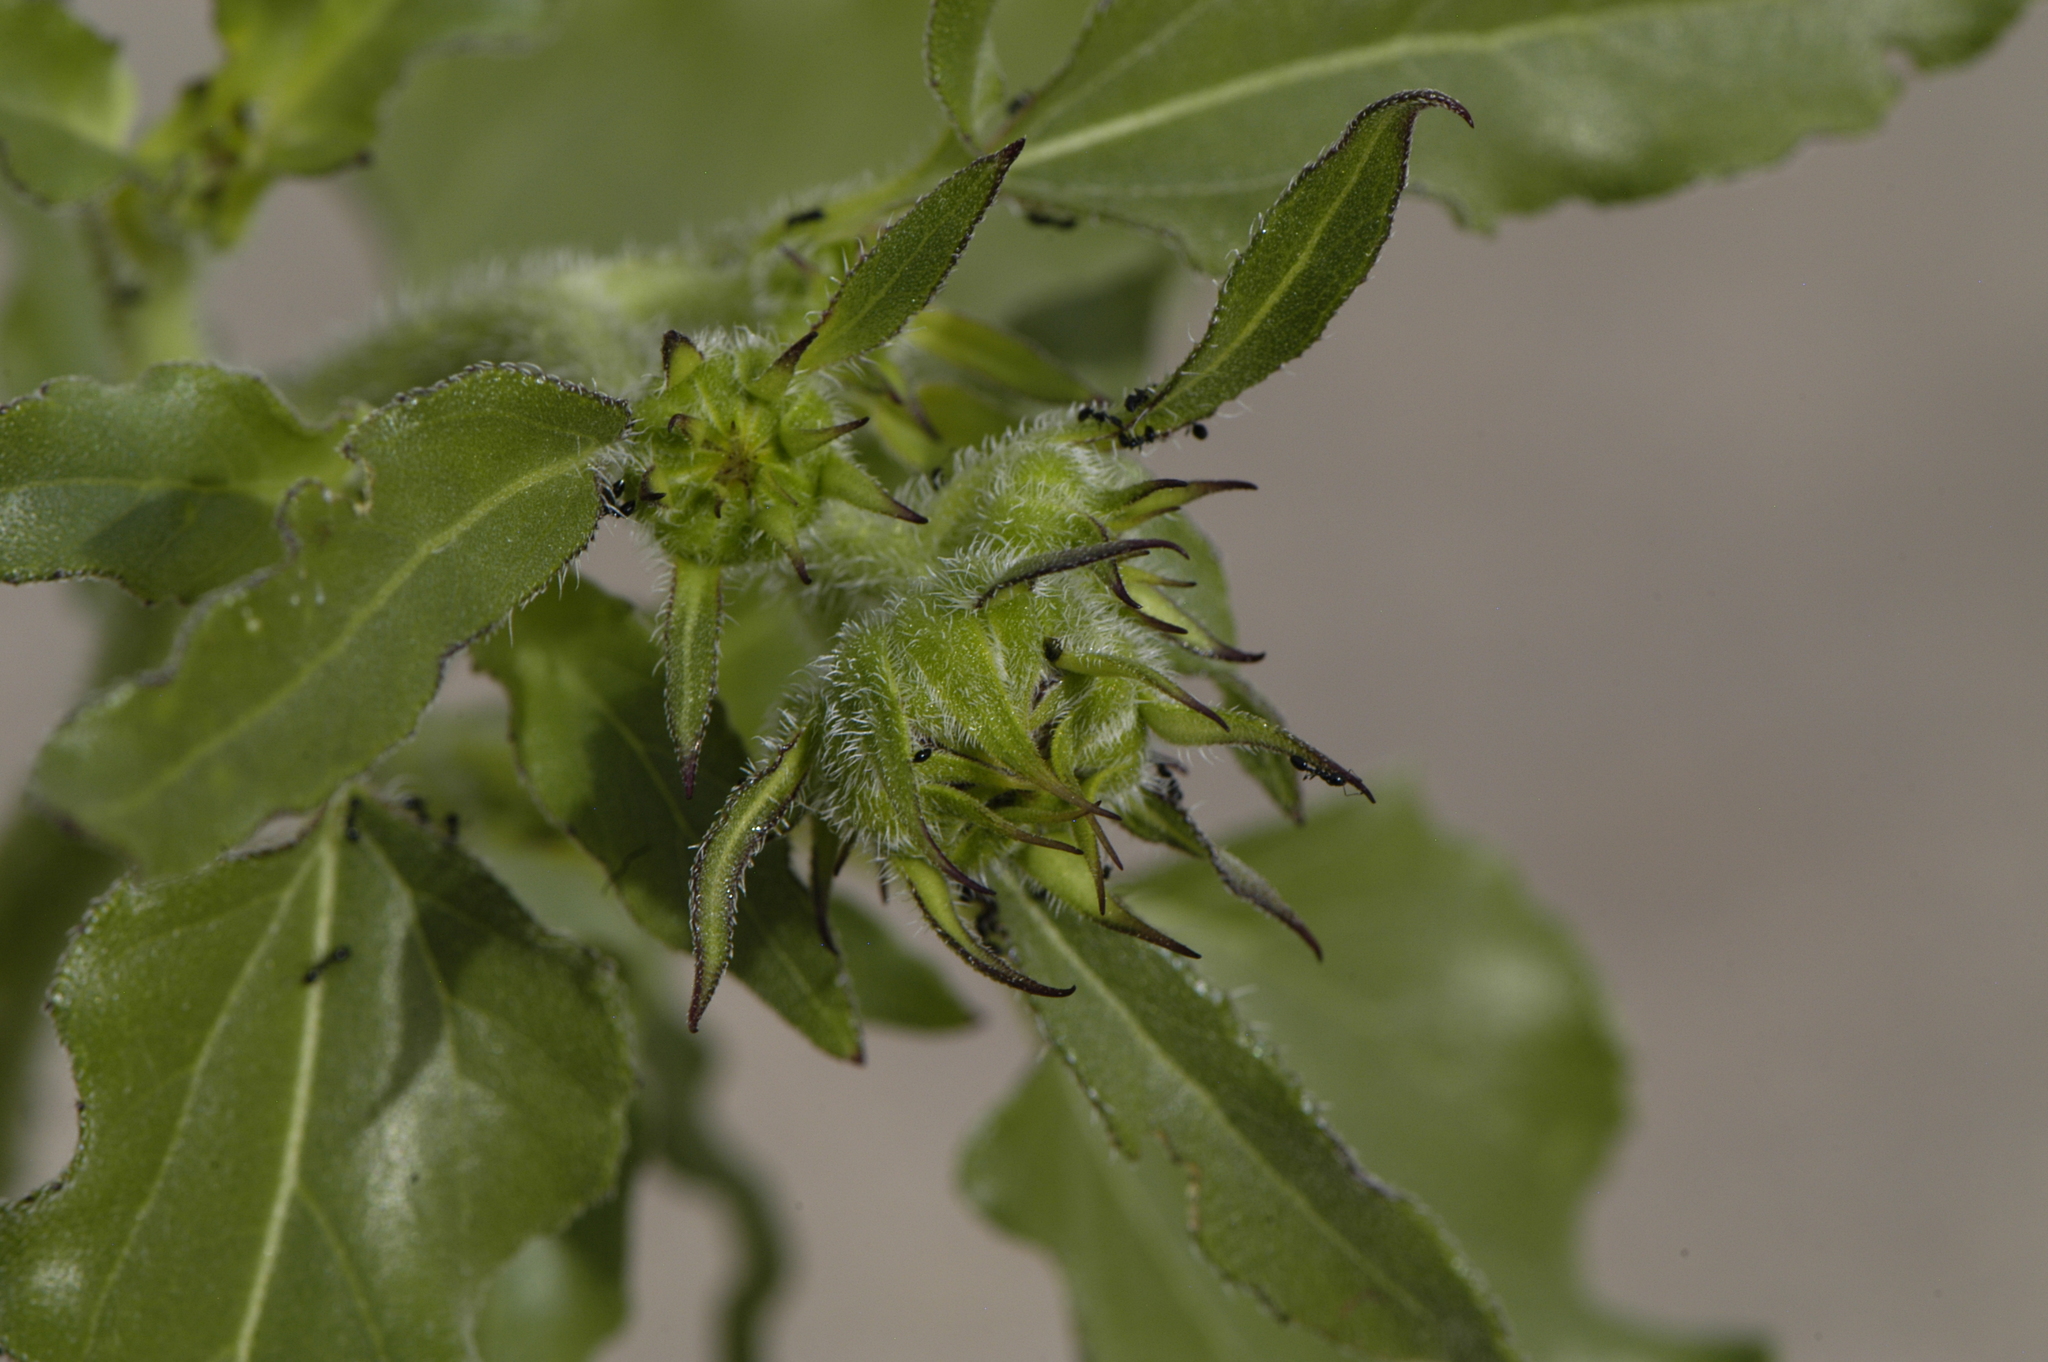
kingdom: Plantae
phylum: Tracheophyta
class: Magnoliopsida
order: Asterales
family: Asteraceae
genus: Helianthus
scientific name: Helianthus petiolaris
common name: Lesser sunflower
